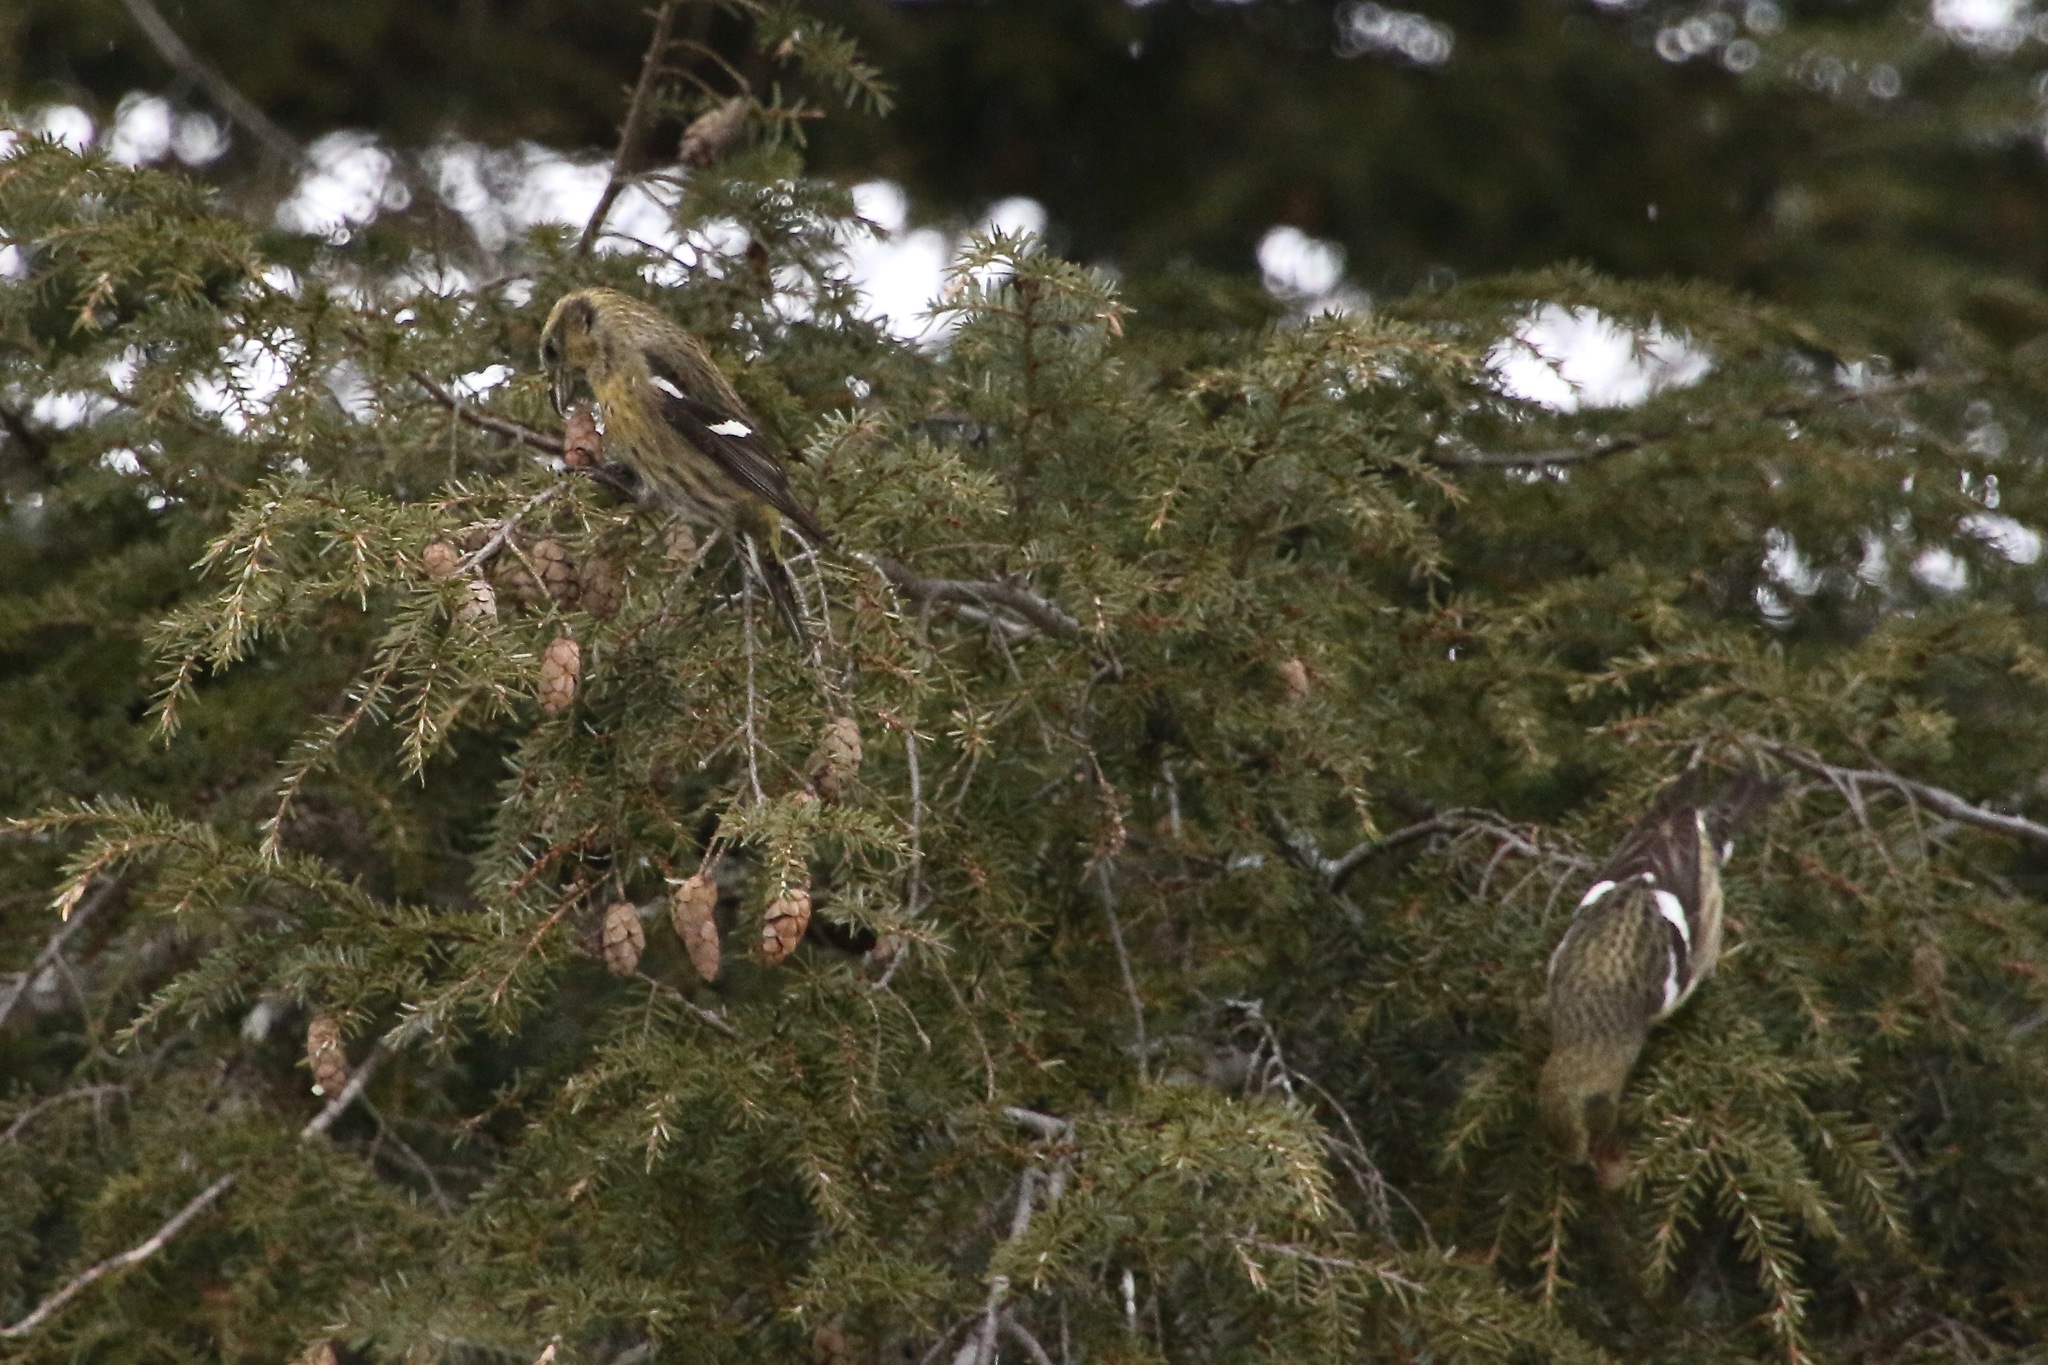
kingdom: Animalia
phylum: Chordata
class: Aves
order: Passeriformes
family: Fringillidae
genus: Loxia
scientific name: Loxia leucoptera
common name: Two-barred crossbill
